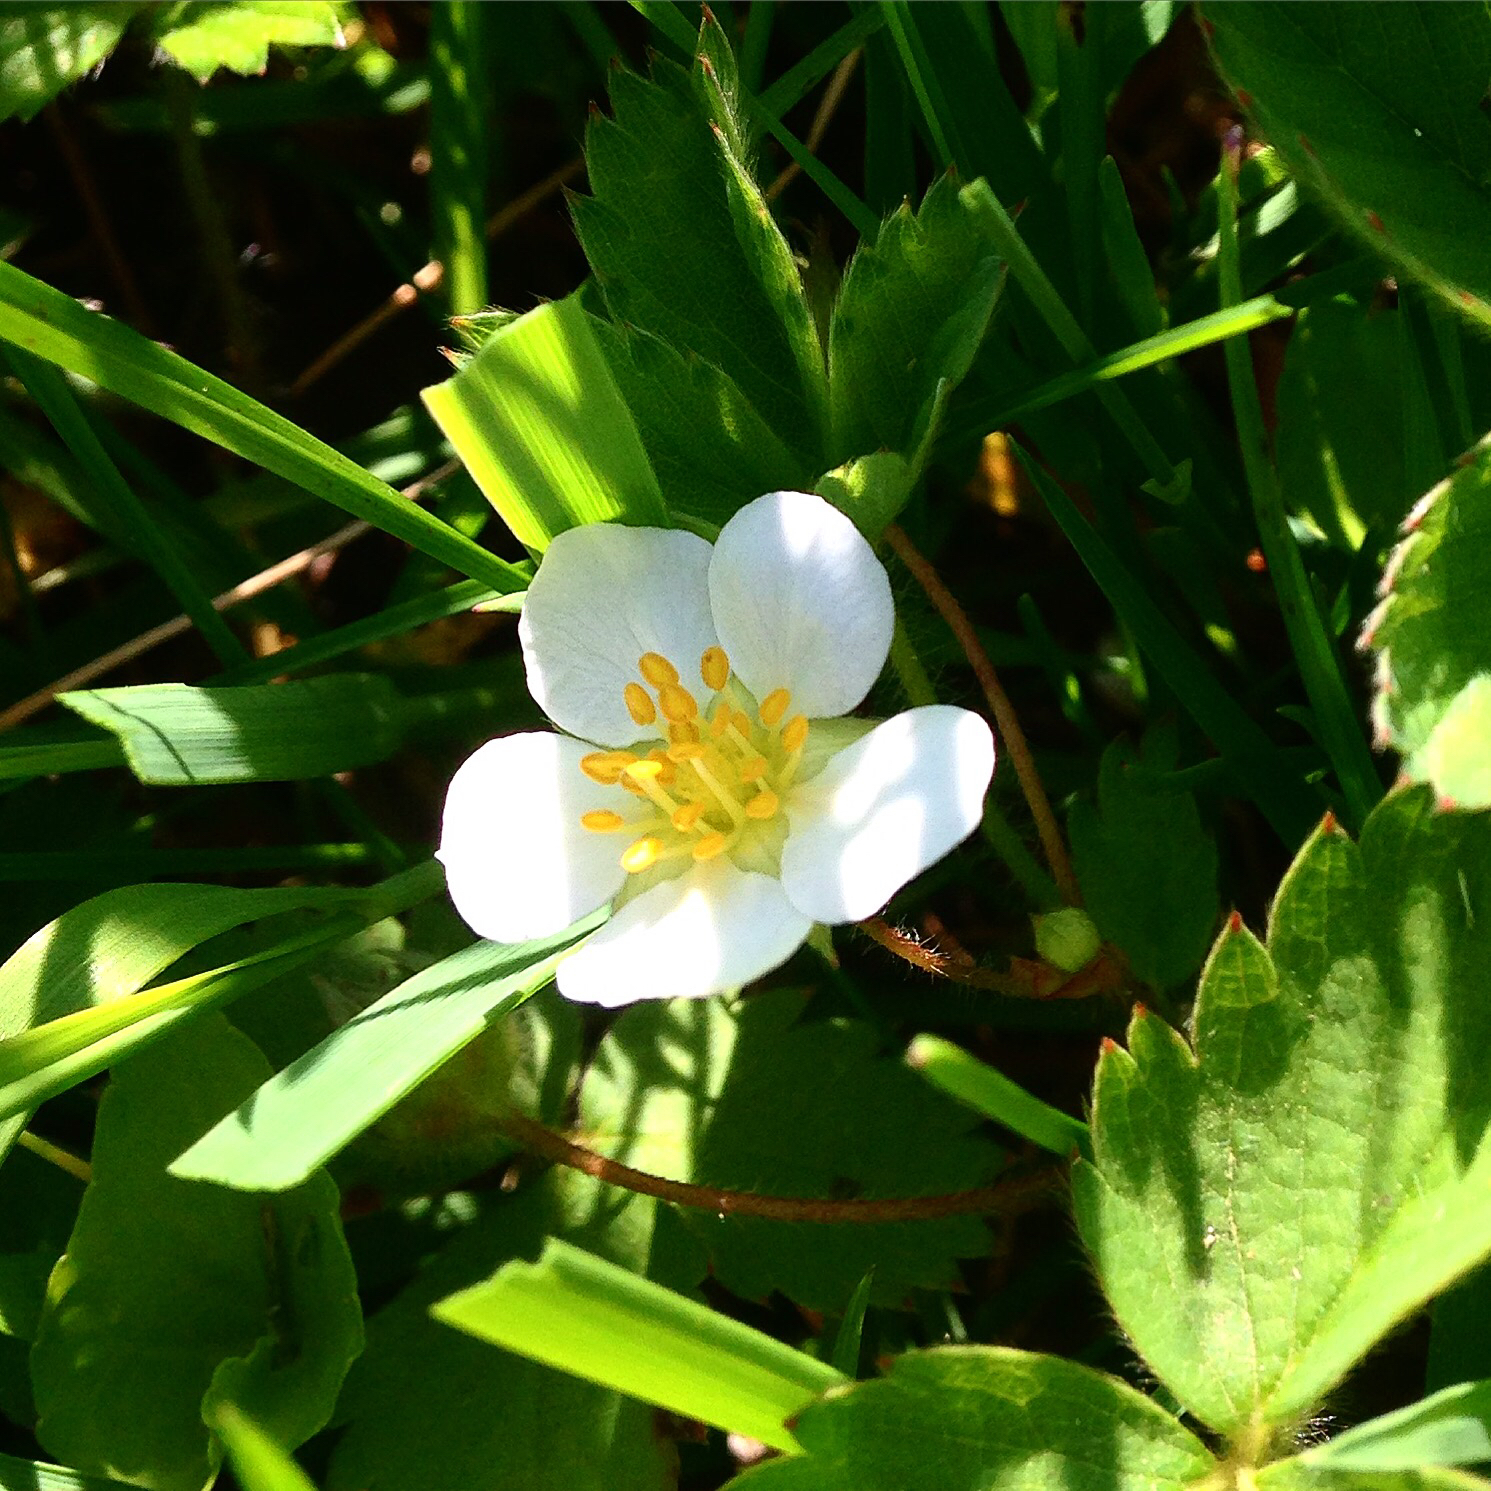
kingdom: Plantae
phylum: Tracheophyta
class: Magnoliopsida
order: Rosales
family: Rosaceae
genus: Fragaria
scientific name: Fragaria virginiana
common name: Thickleaved wild strawberry
